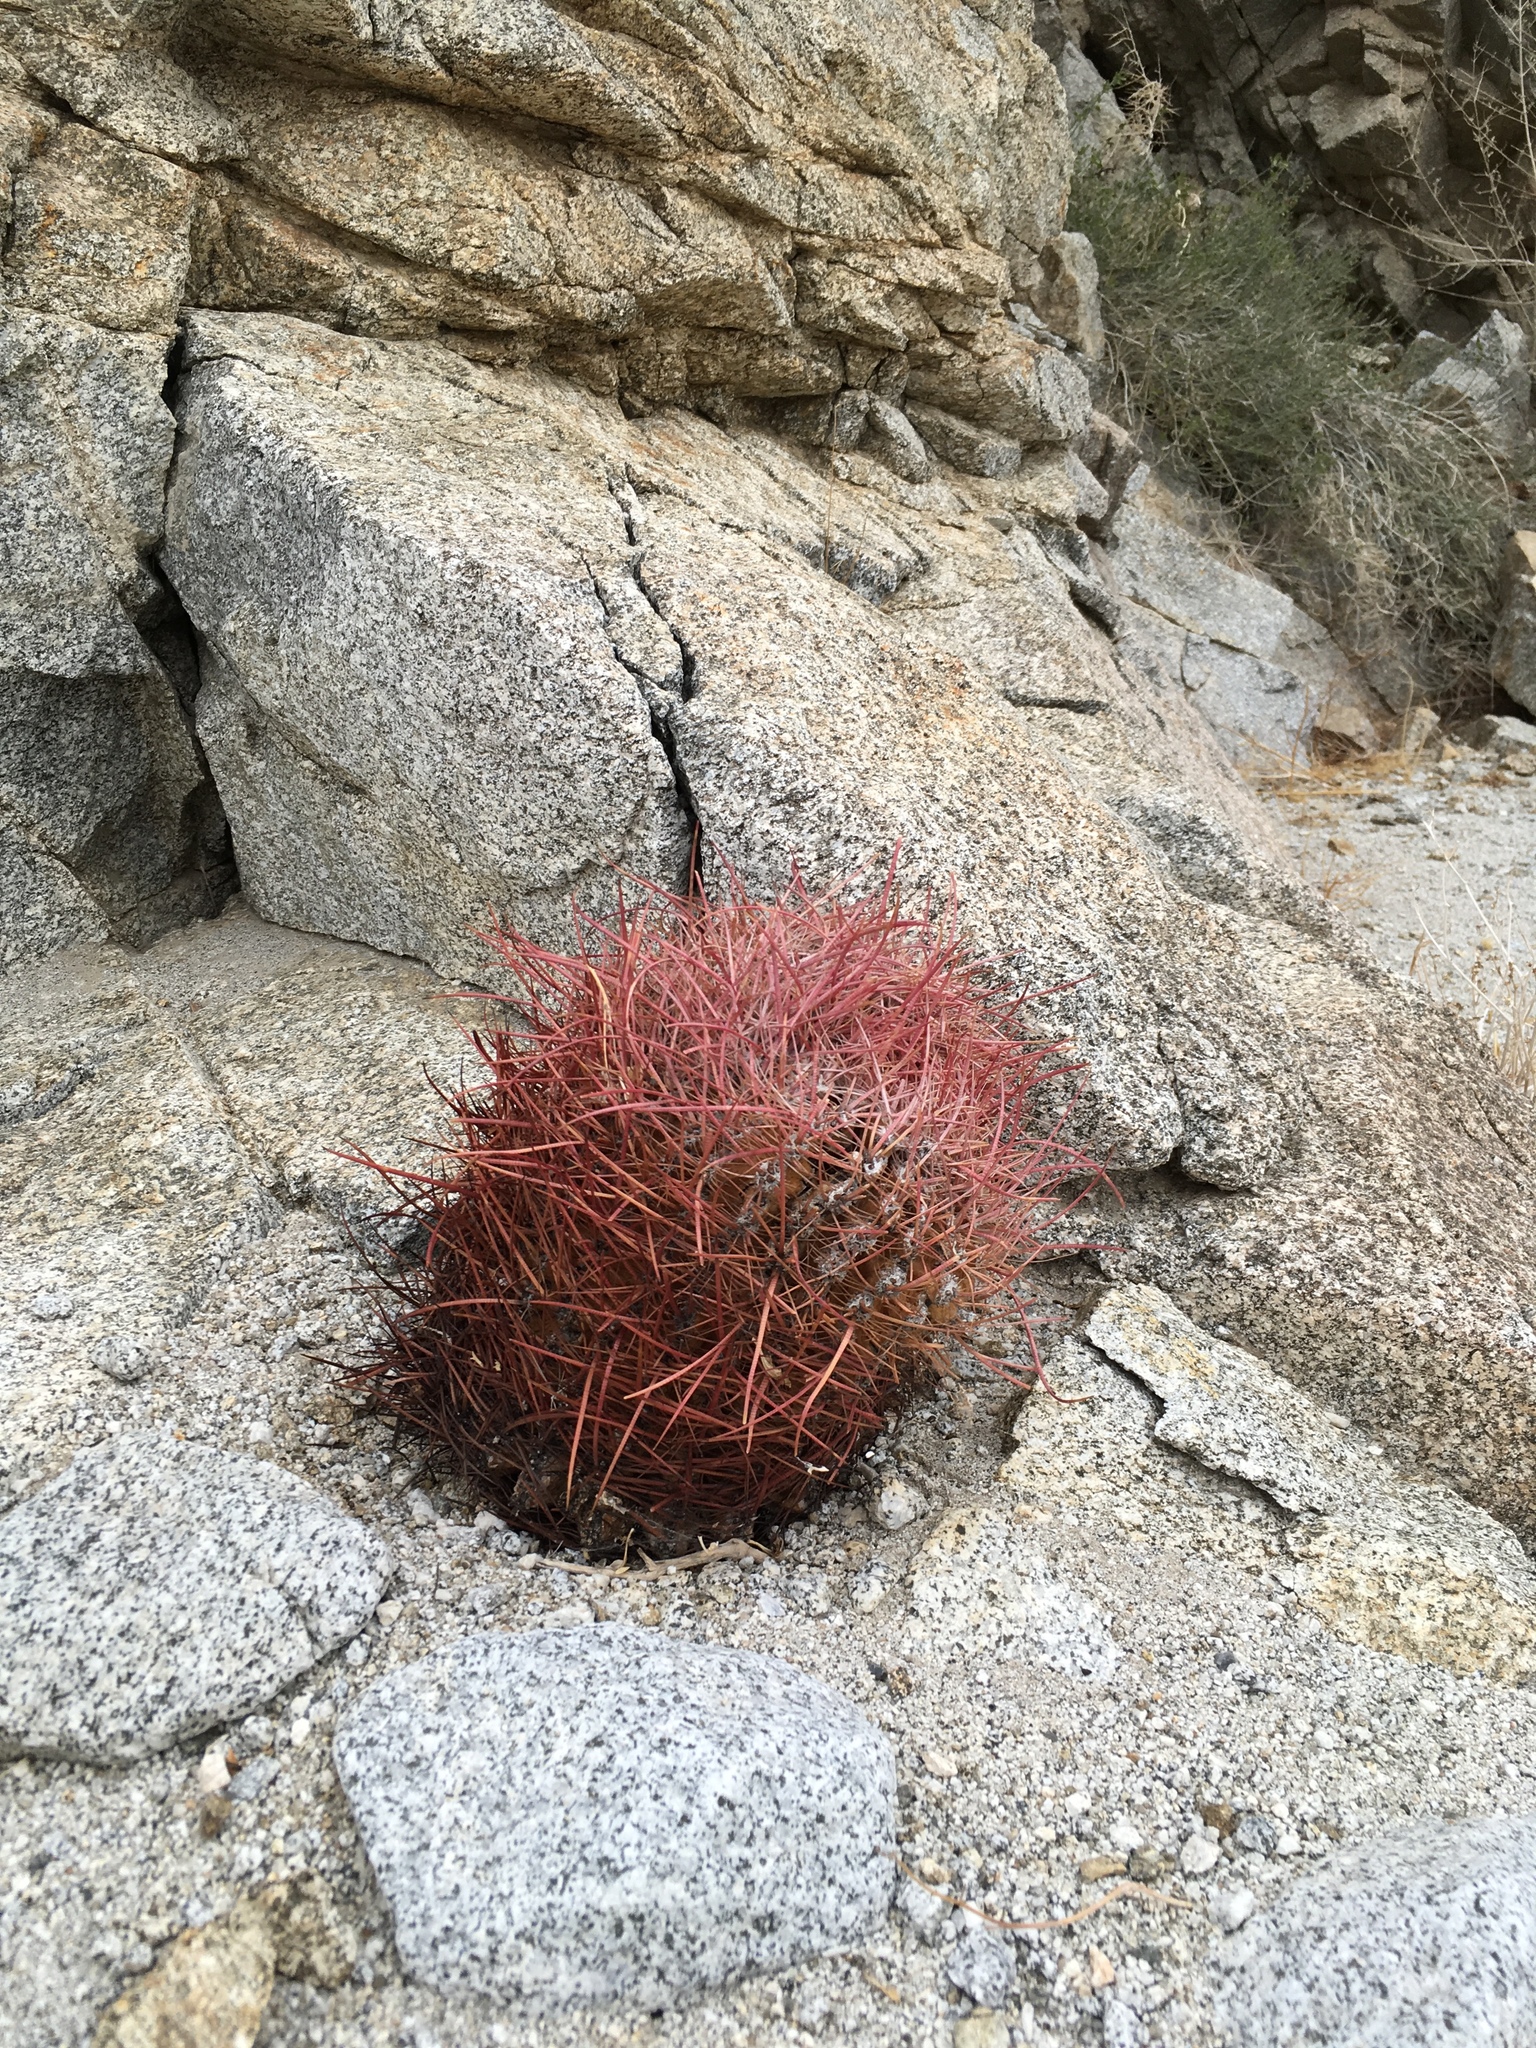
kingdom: Plantae
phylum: Tracheophyta
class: Magnoliopsida
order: Caryophyllales
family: Cactaceae
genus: Ferocactus
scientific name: Ferocactus cylindraceus
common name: California barrel cactus
